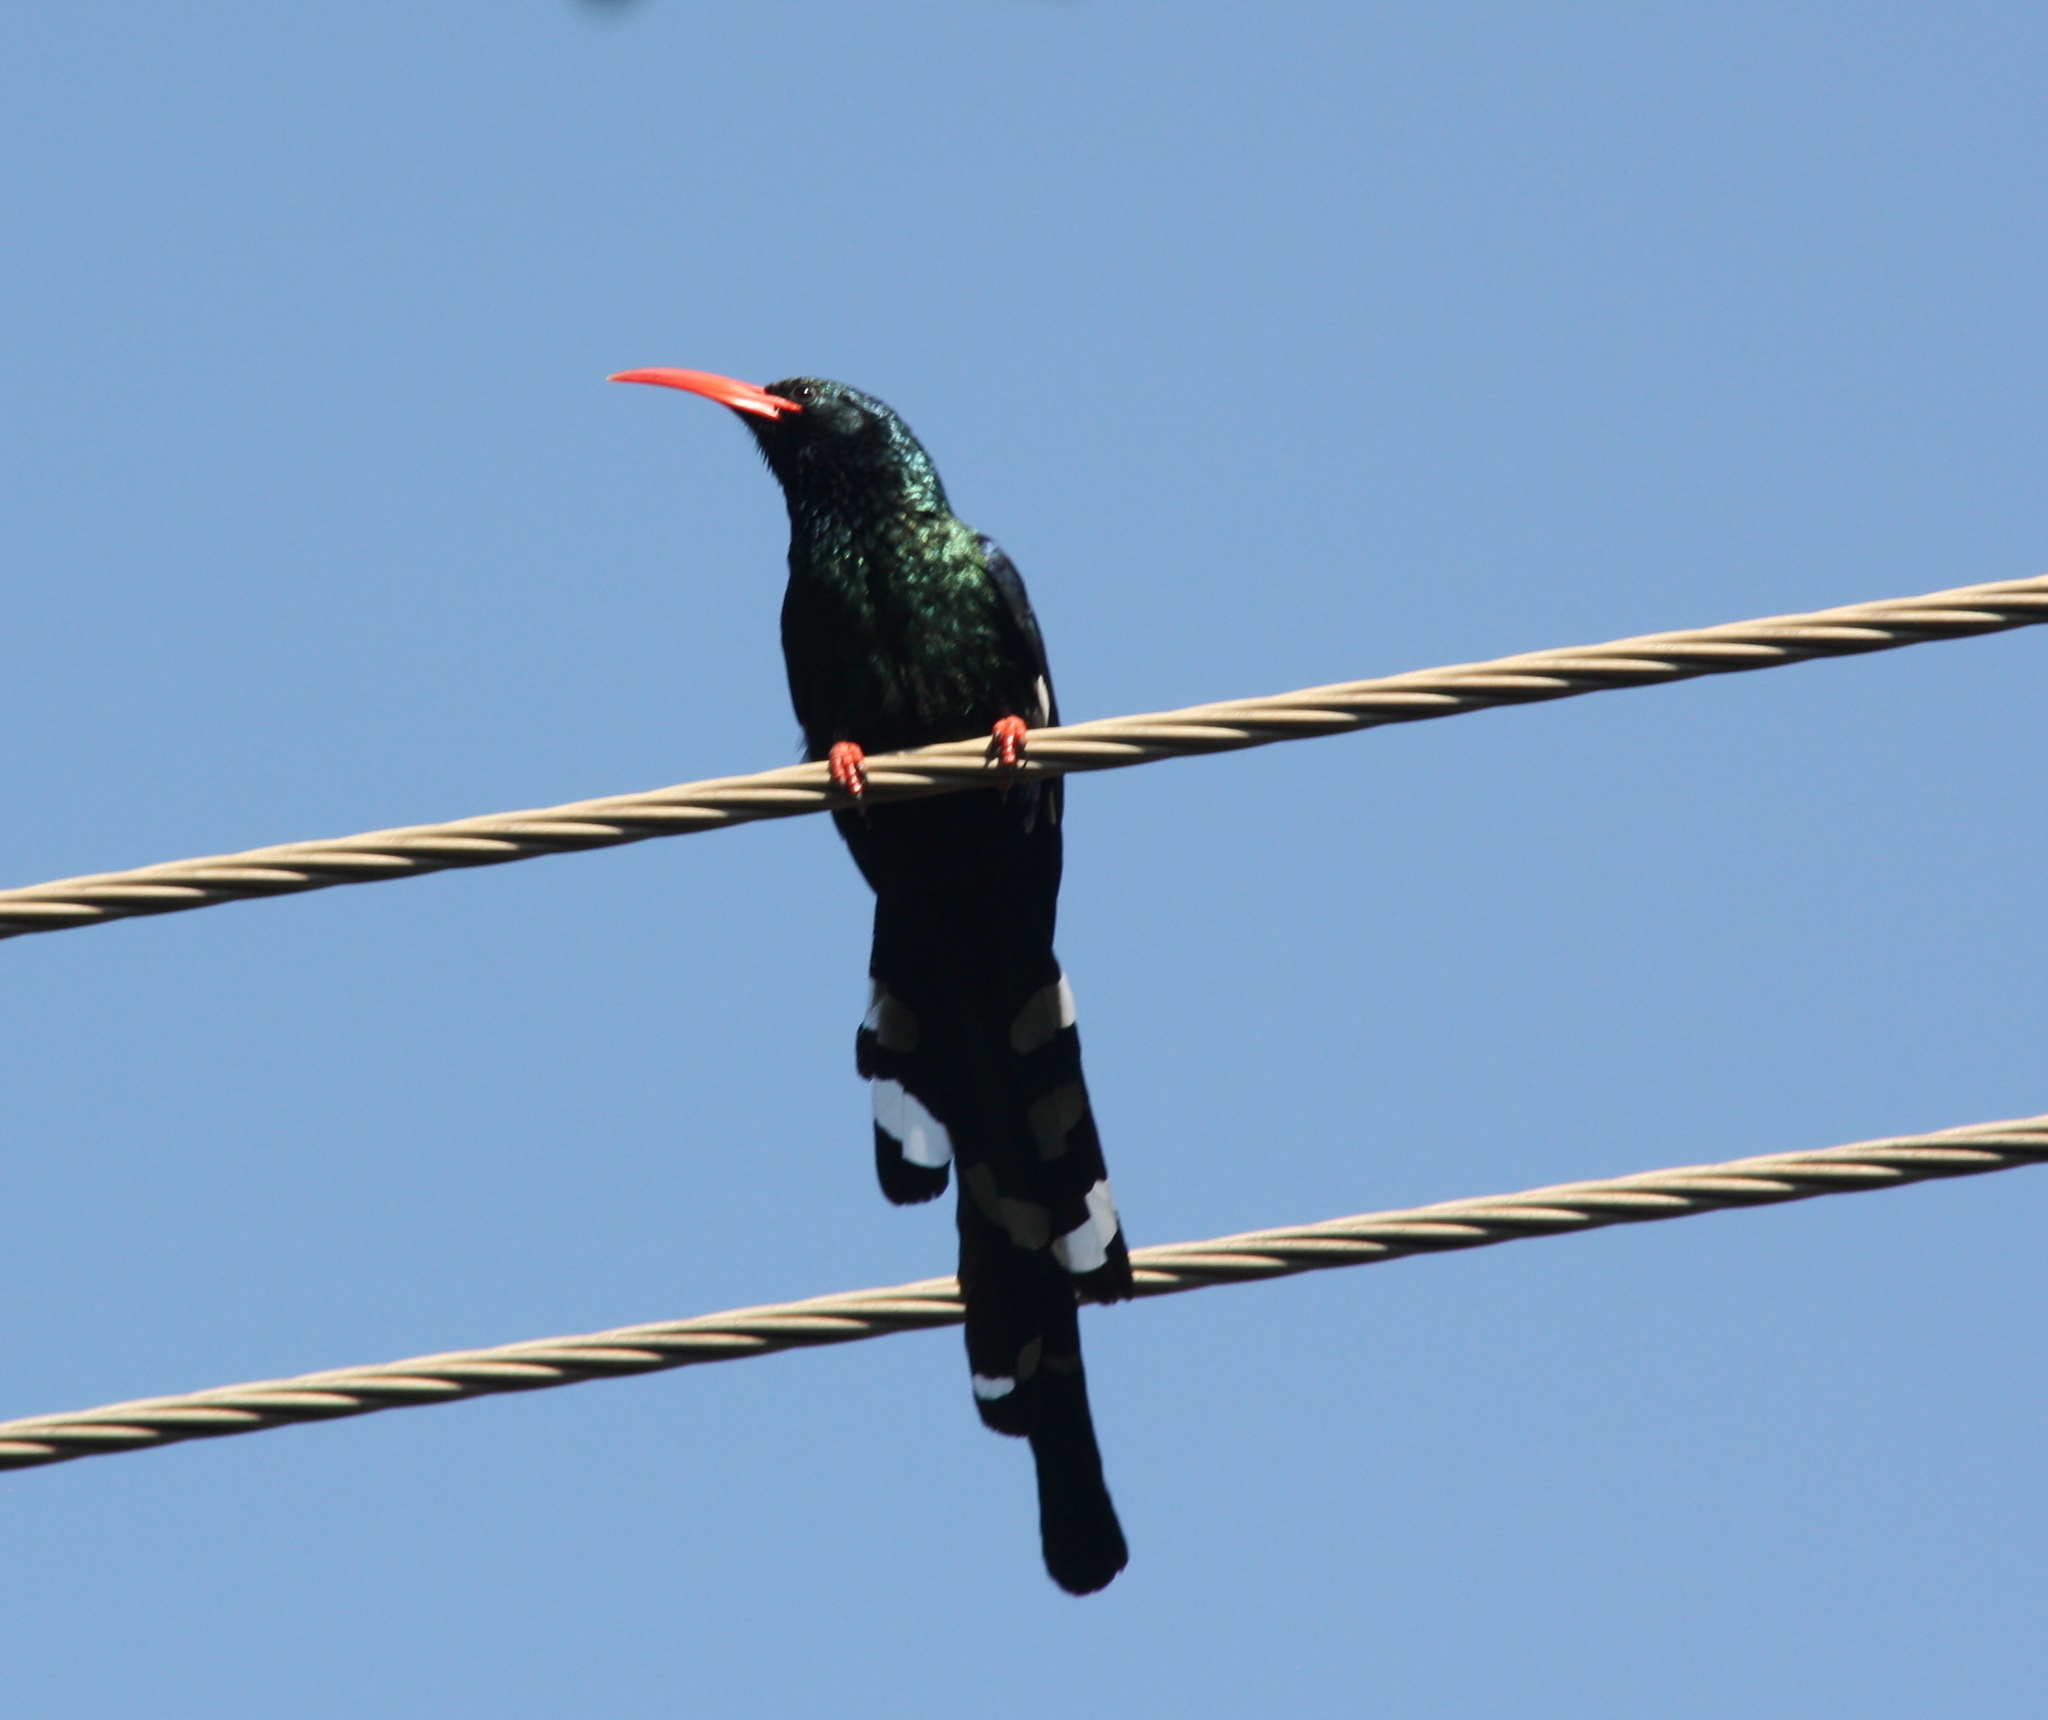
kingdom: Animalia
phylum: Chordata
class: Aves
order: Bucerotiformes
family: Phoeniculidae
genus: Phoeniculus
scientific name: Phoeniculus purpureus
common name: Green woodhoopoe
